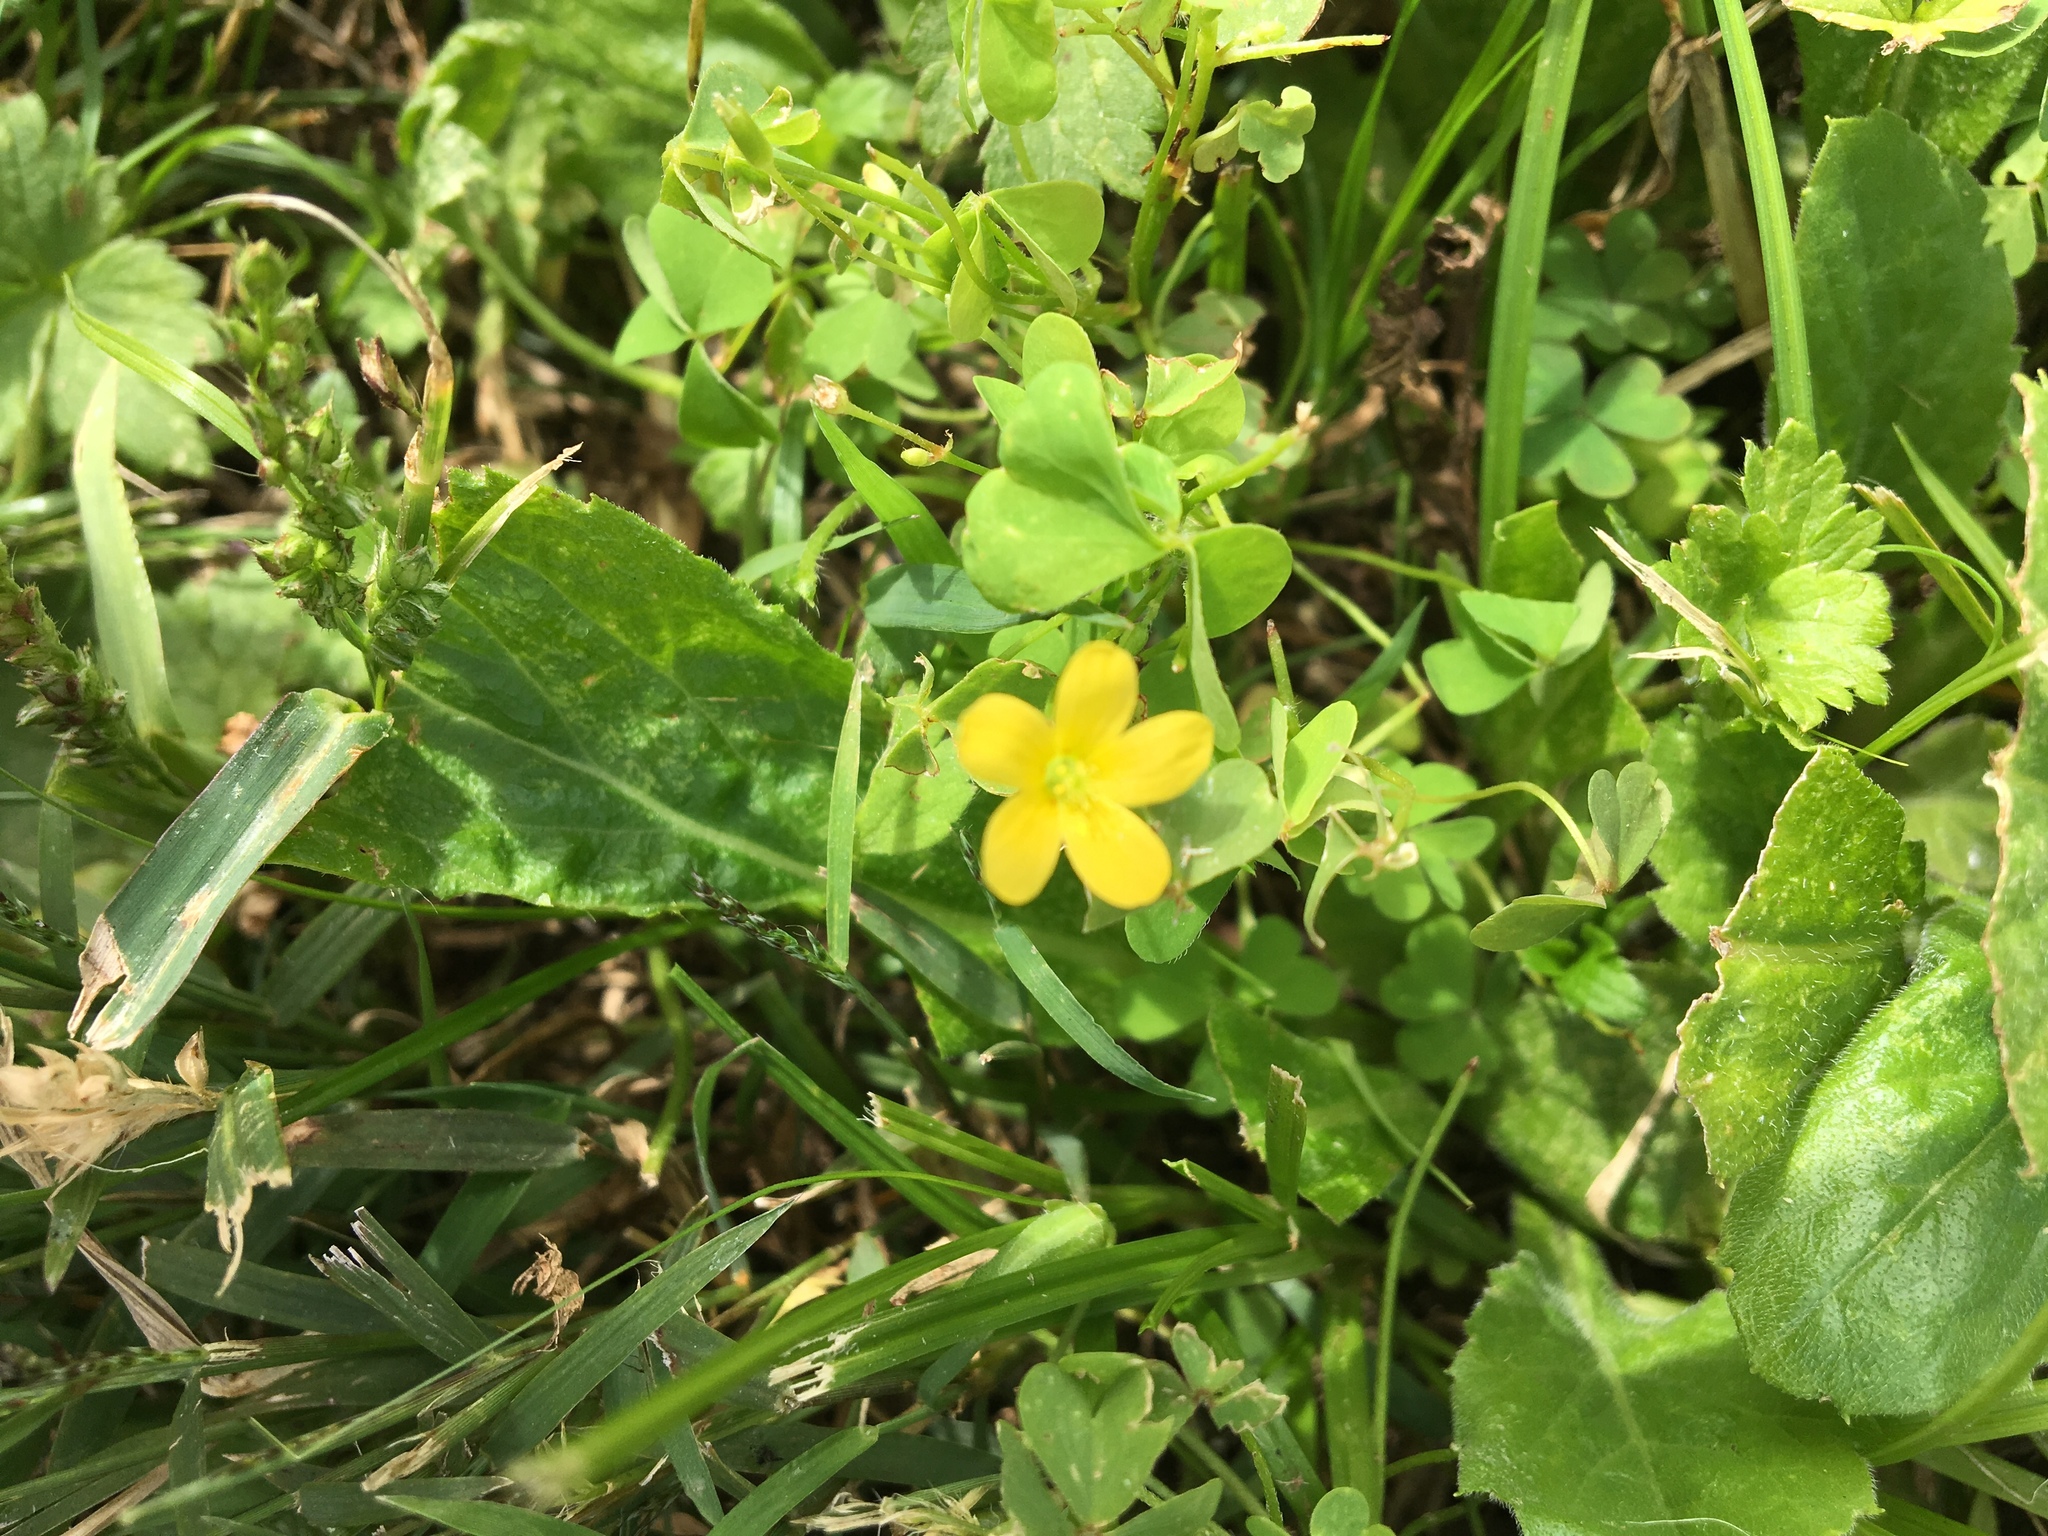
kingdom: Plantae
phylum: Tracheophyta
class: Magnoliopsida
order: Oxalidales
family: Oxalidaceae
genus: Oxalis
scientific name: Oxalis
